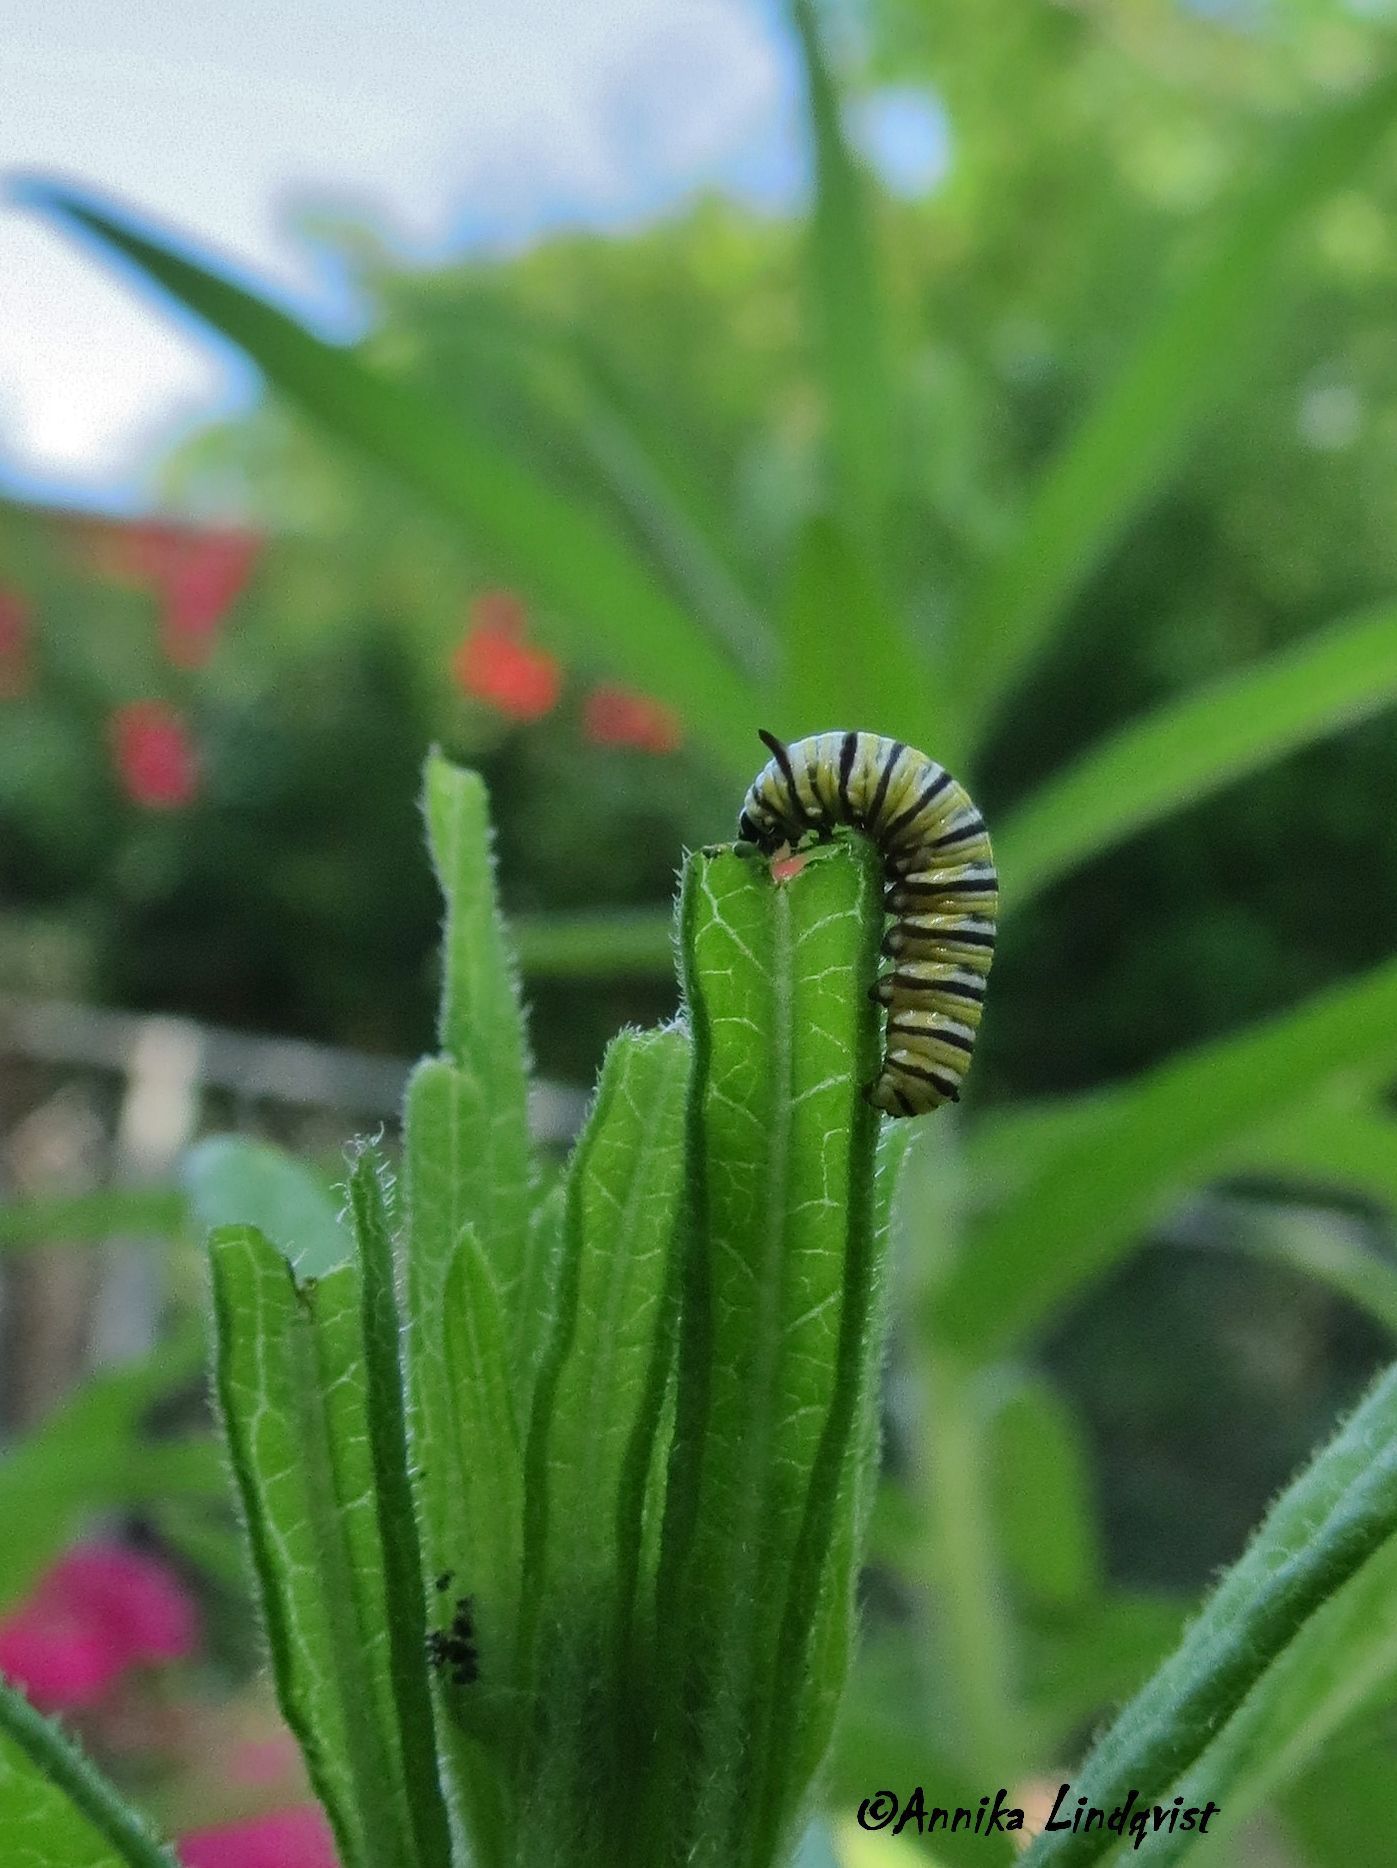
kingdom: Animalia
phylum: Arthropoda
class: Insecta
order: Lepidoptera
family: Nymphalidae
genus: Danaus
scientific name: Danaus plexippus
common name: Monarch
